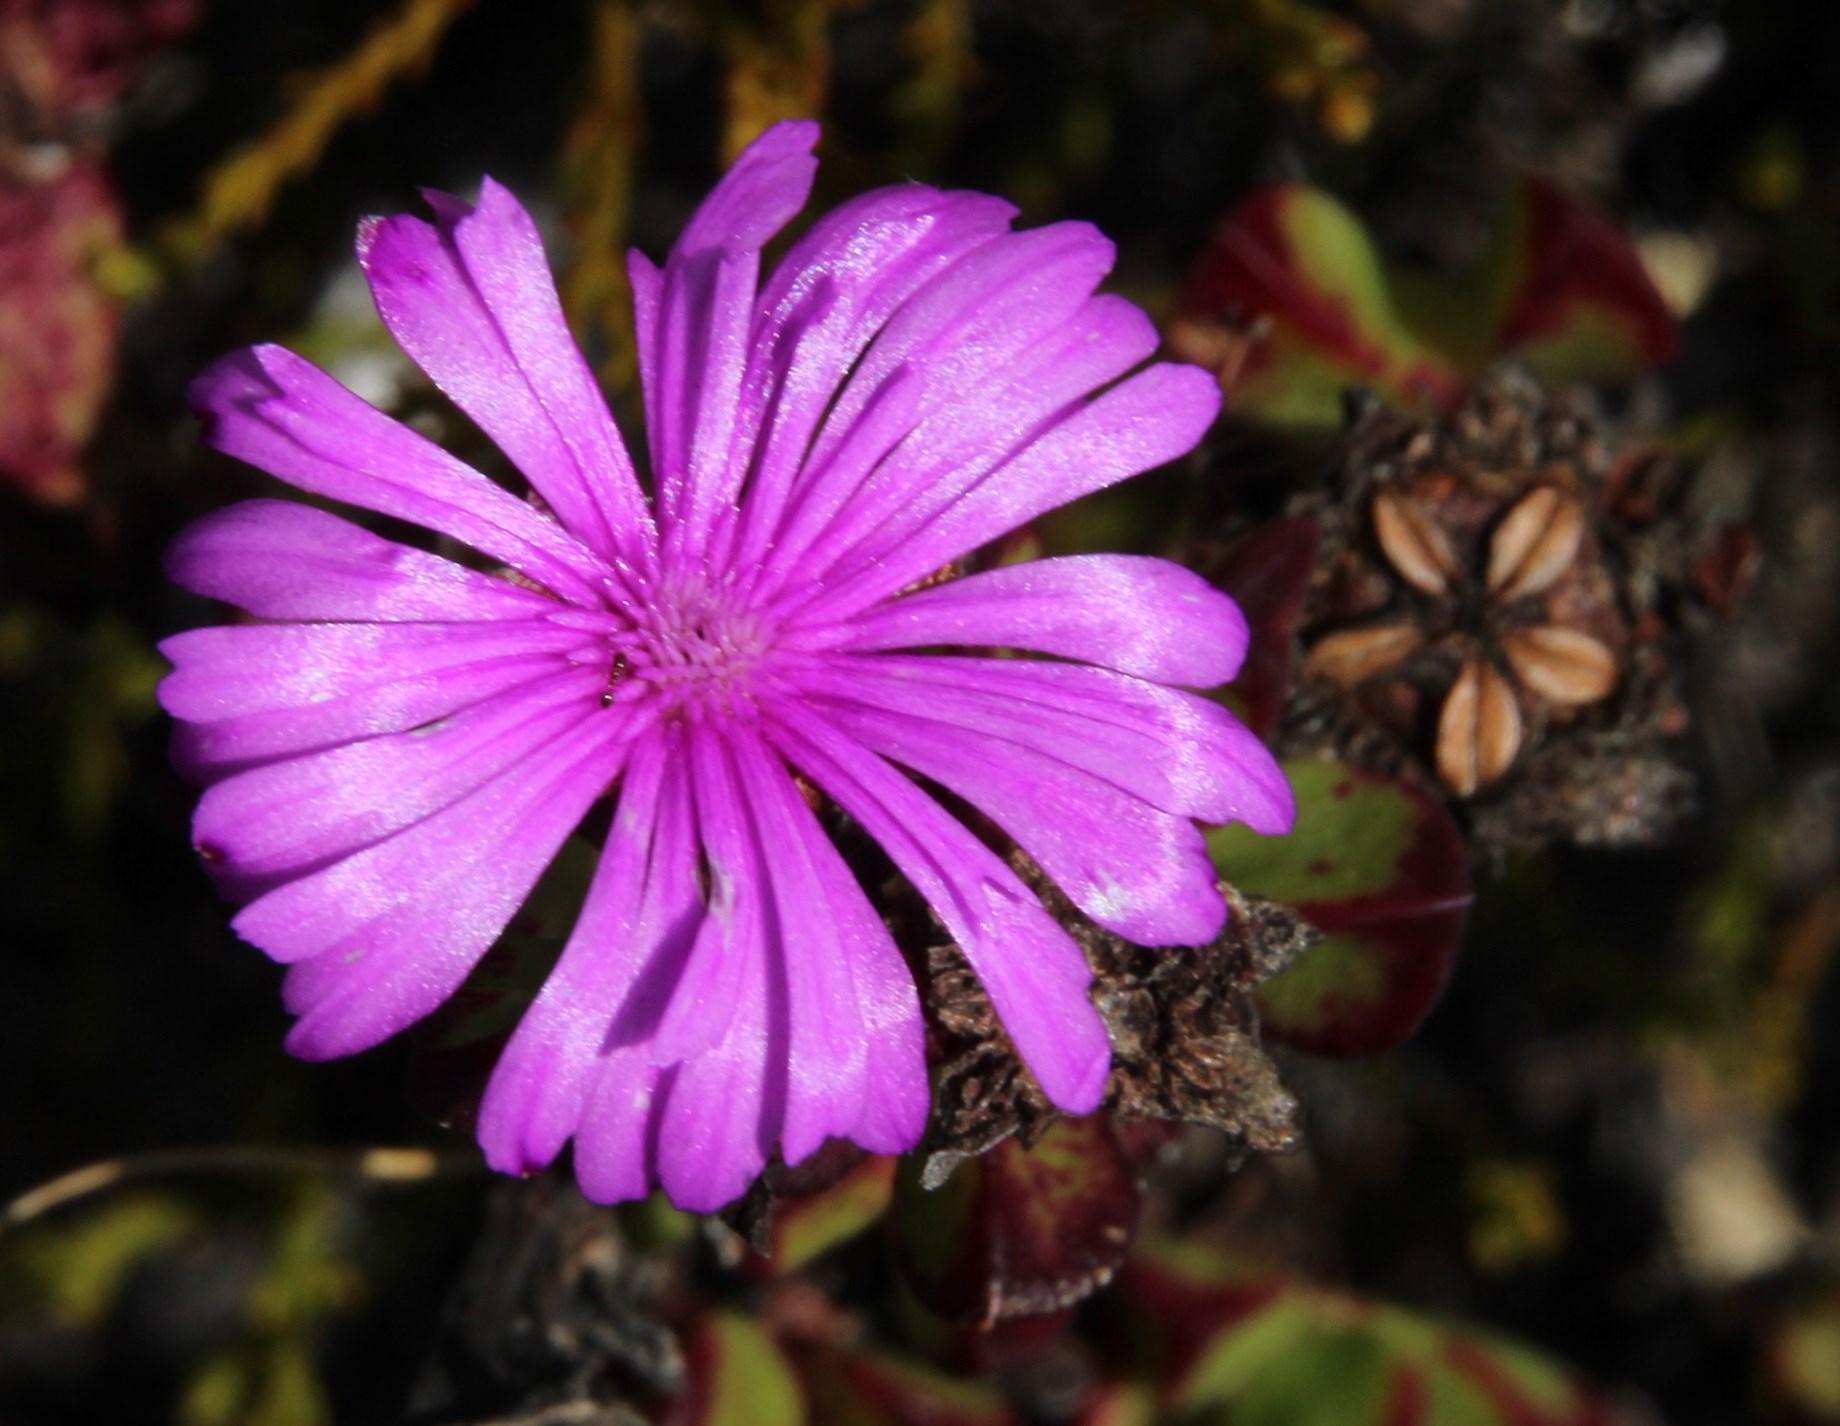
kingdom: Plantae
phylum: Tracheophyta
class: Magnoliopsida
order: Caryophyllales
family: Aizoaceae
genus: Erepsia
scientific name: Erepsia inclaudens
